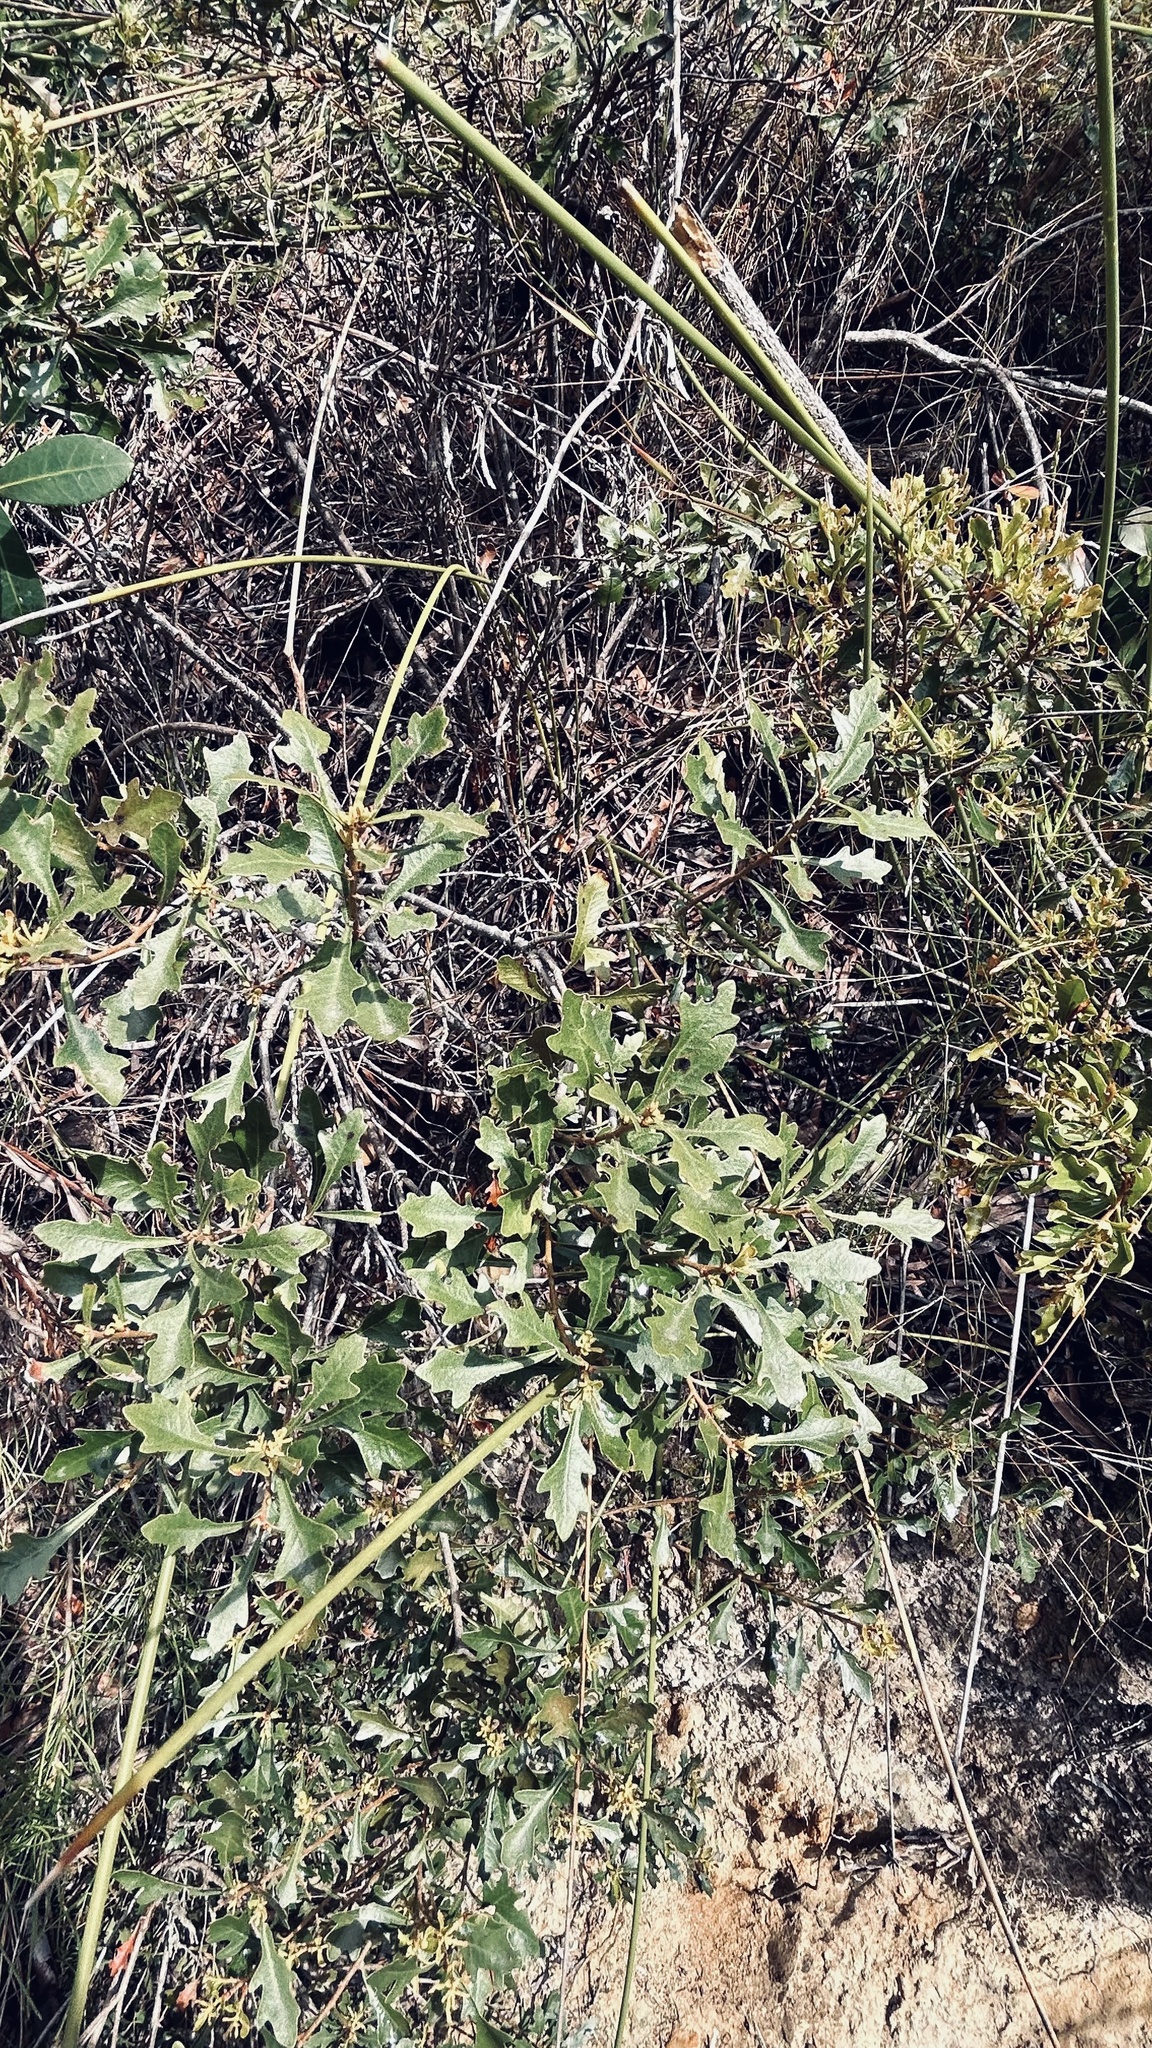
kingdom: Plantae
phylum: Tracheophyta
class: Magnoliopsida
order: Fagales
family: Myricaceae
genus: Morella
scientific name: Morella quercifolia
